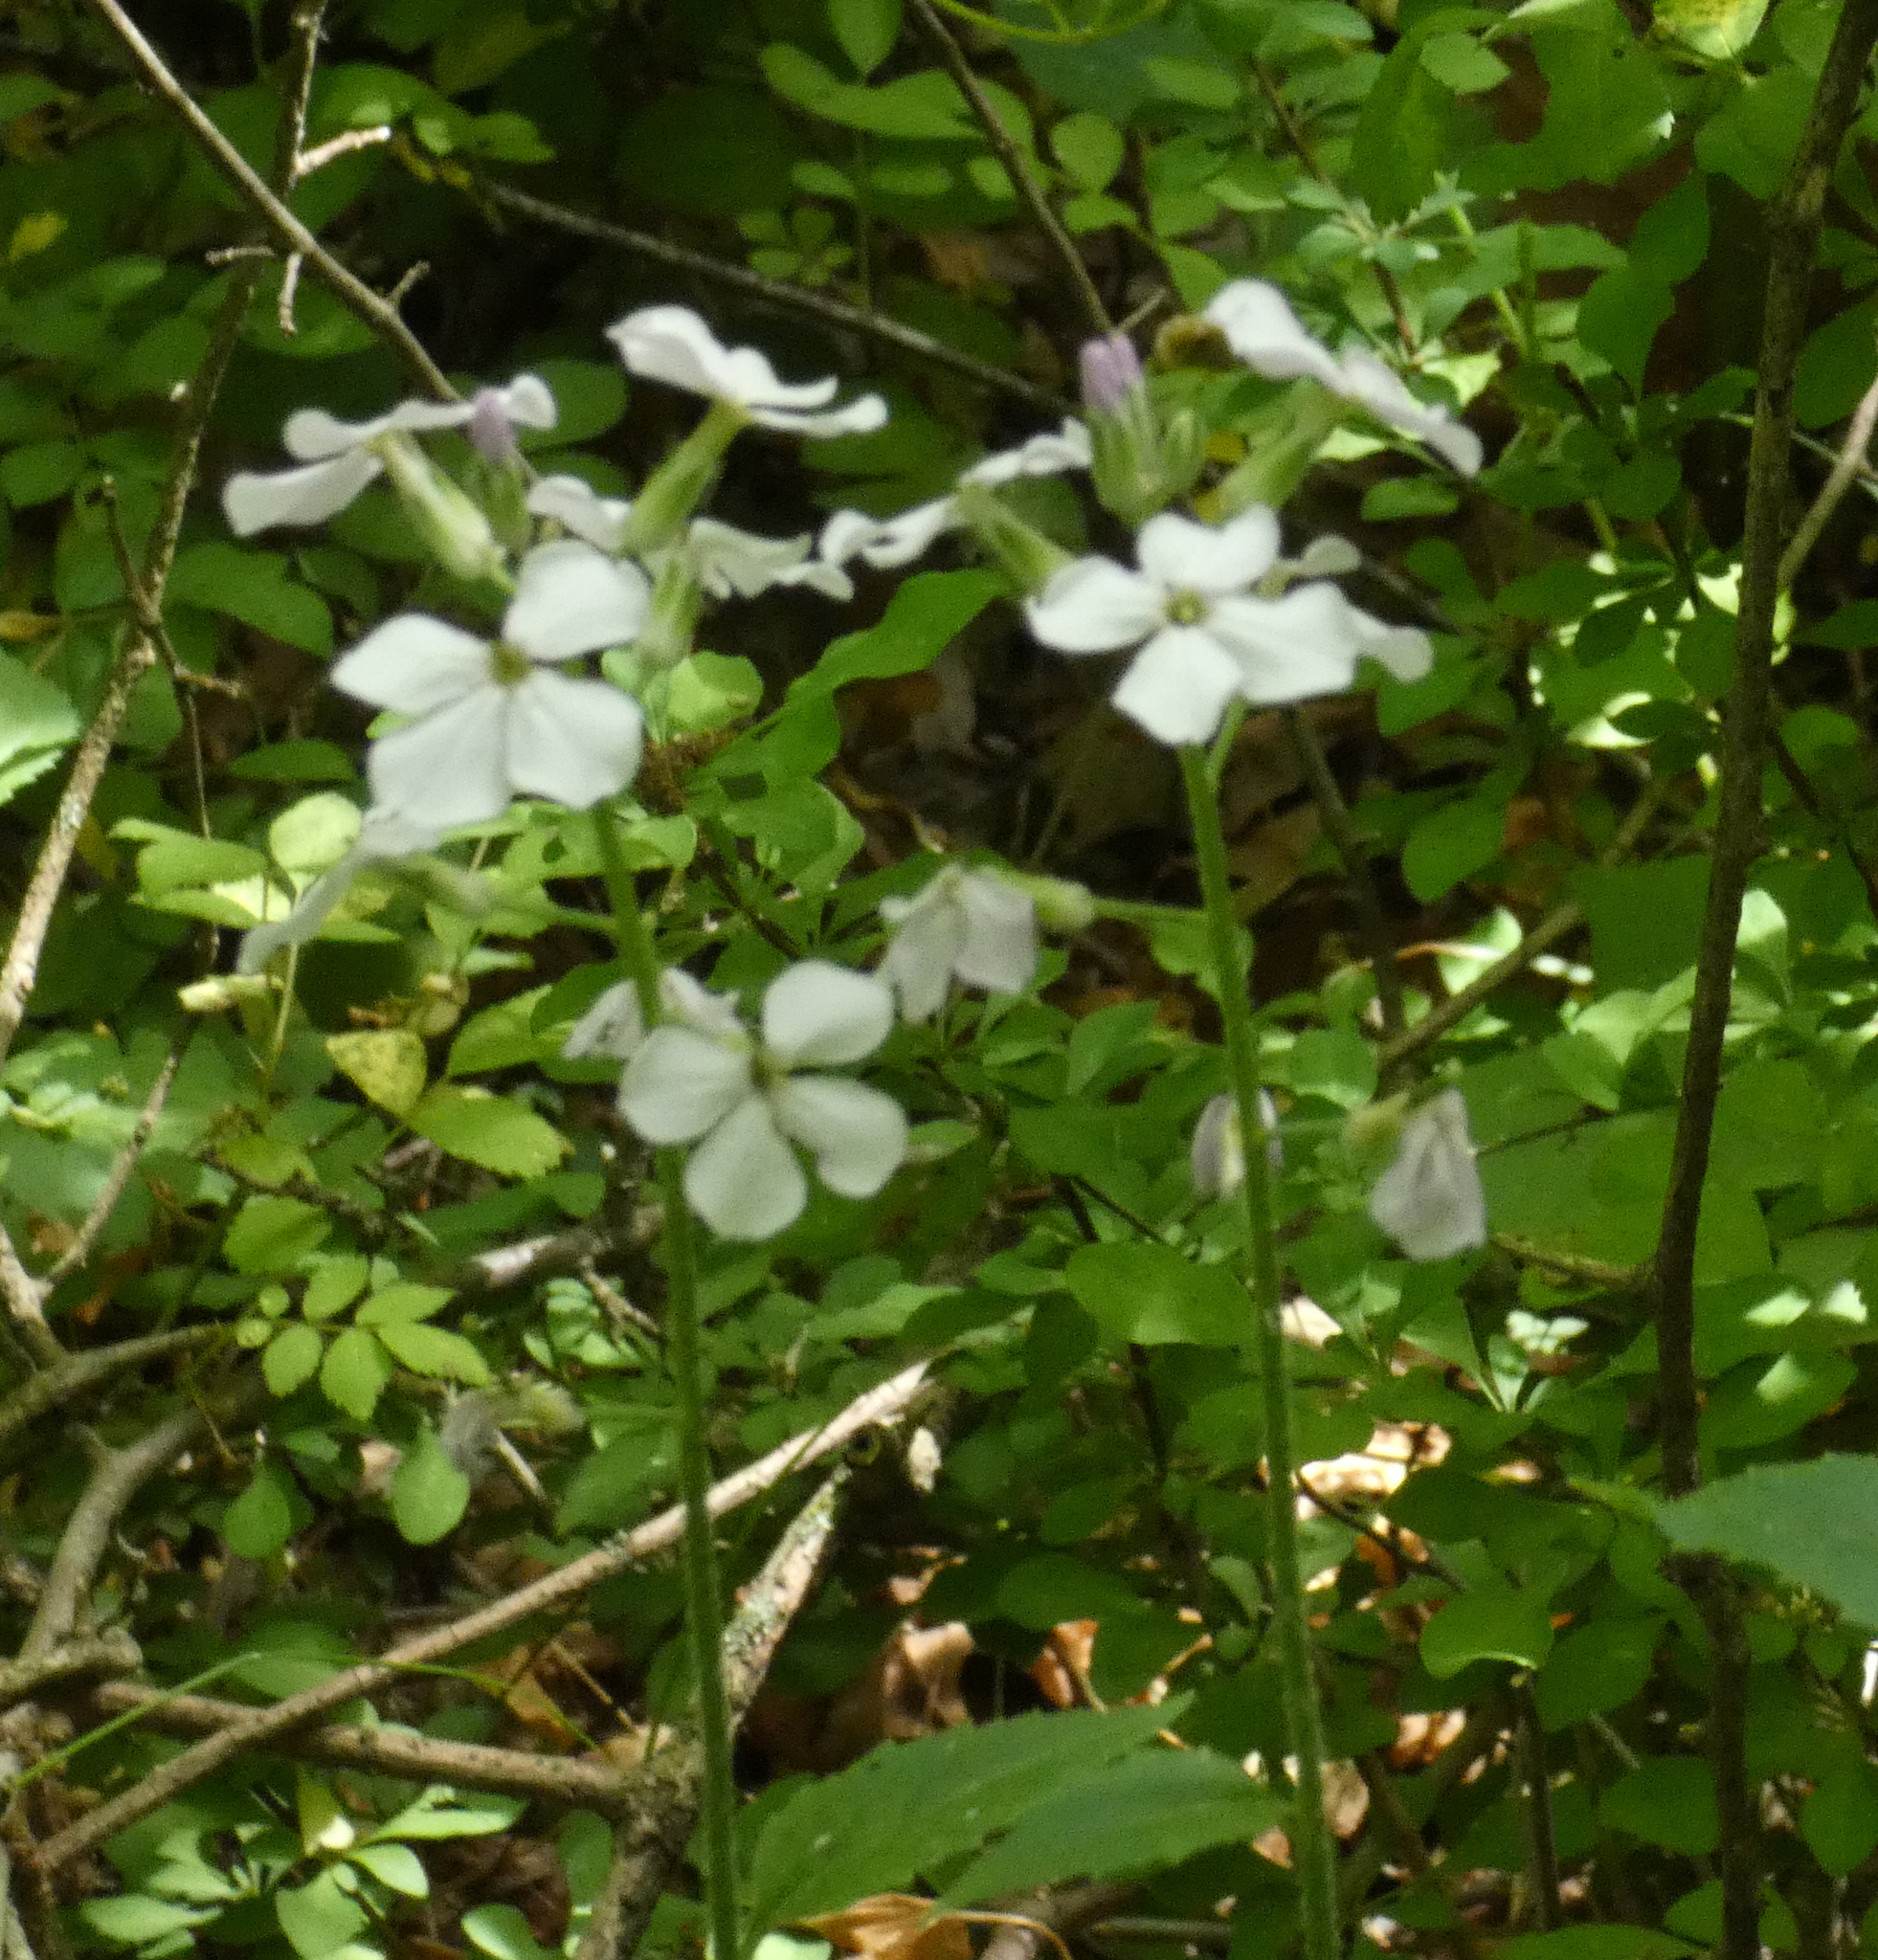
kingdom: Plantae
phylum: Tracheophyta
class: Magnoliopsida
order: Brassicales
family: Brassicaceae
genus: Hesperis
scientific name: Hesperis matronalis
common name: Dame's-violet
